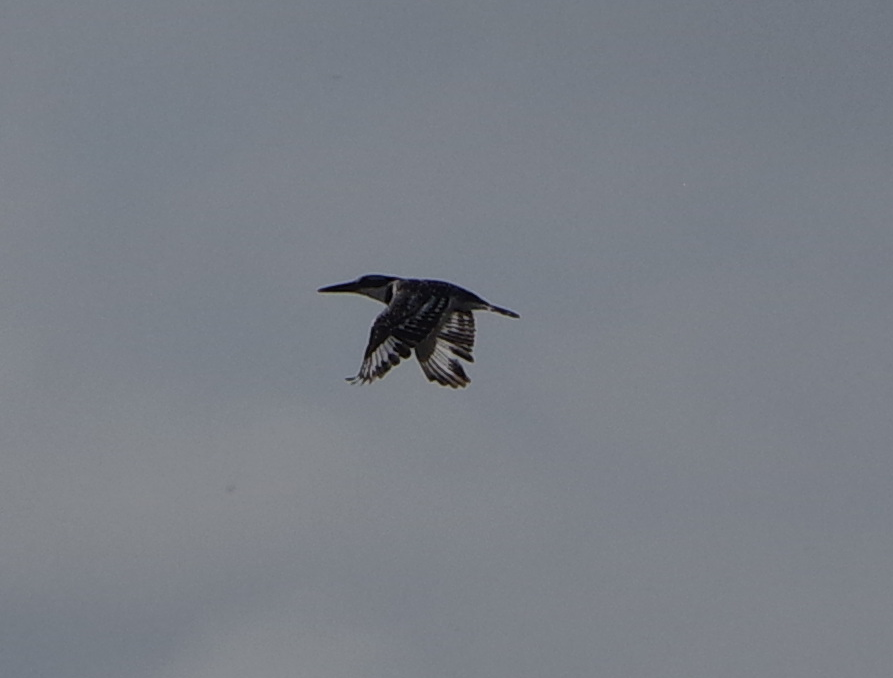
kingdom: Animalia
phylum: Chordata
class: Aves
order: Coraciiformes
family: Alcedinidae
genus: Ceryle
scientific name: Ceryle rudis
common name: Pied kingfisher
